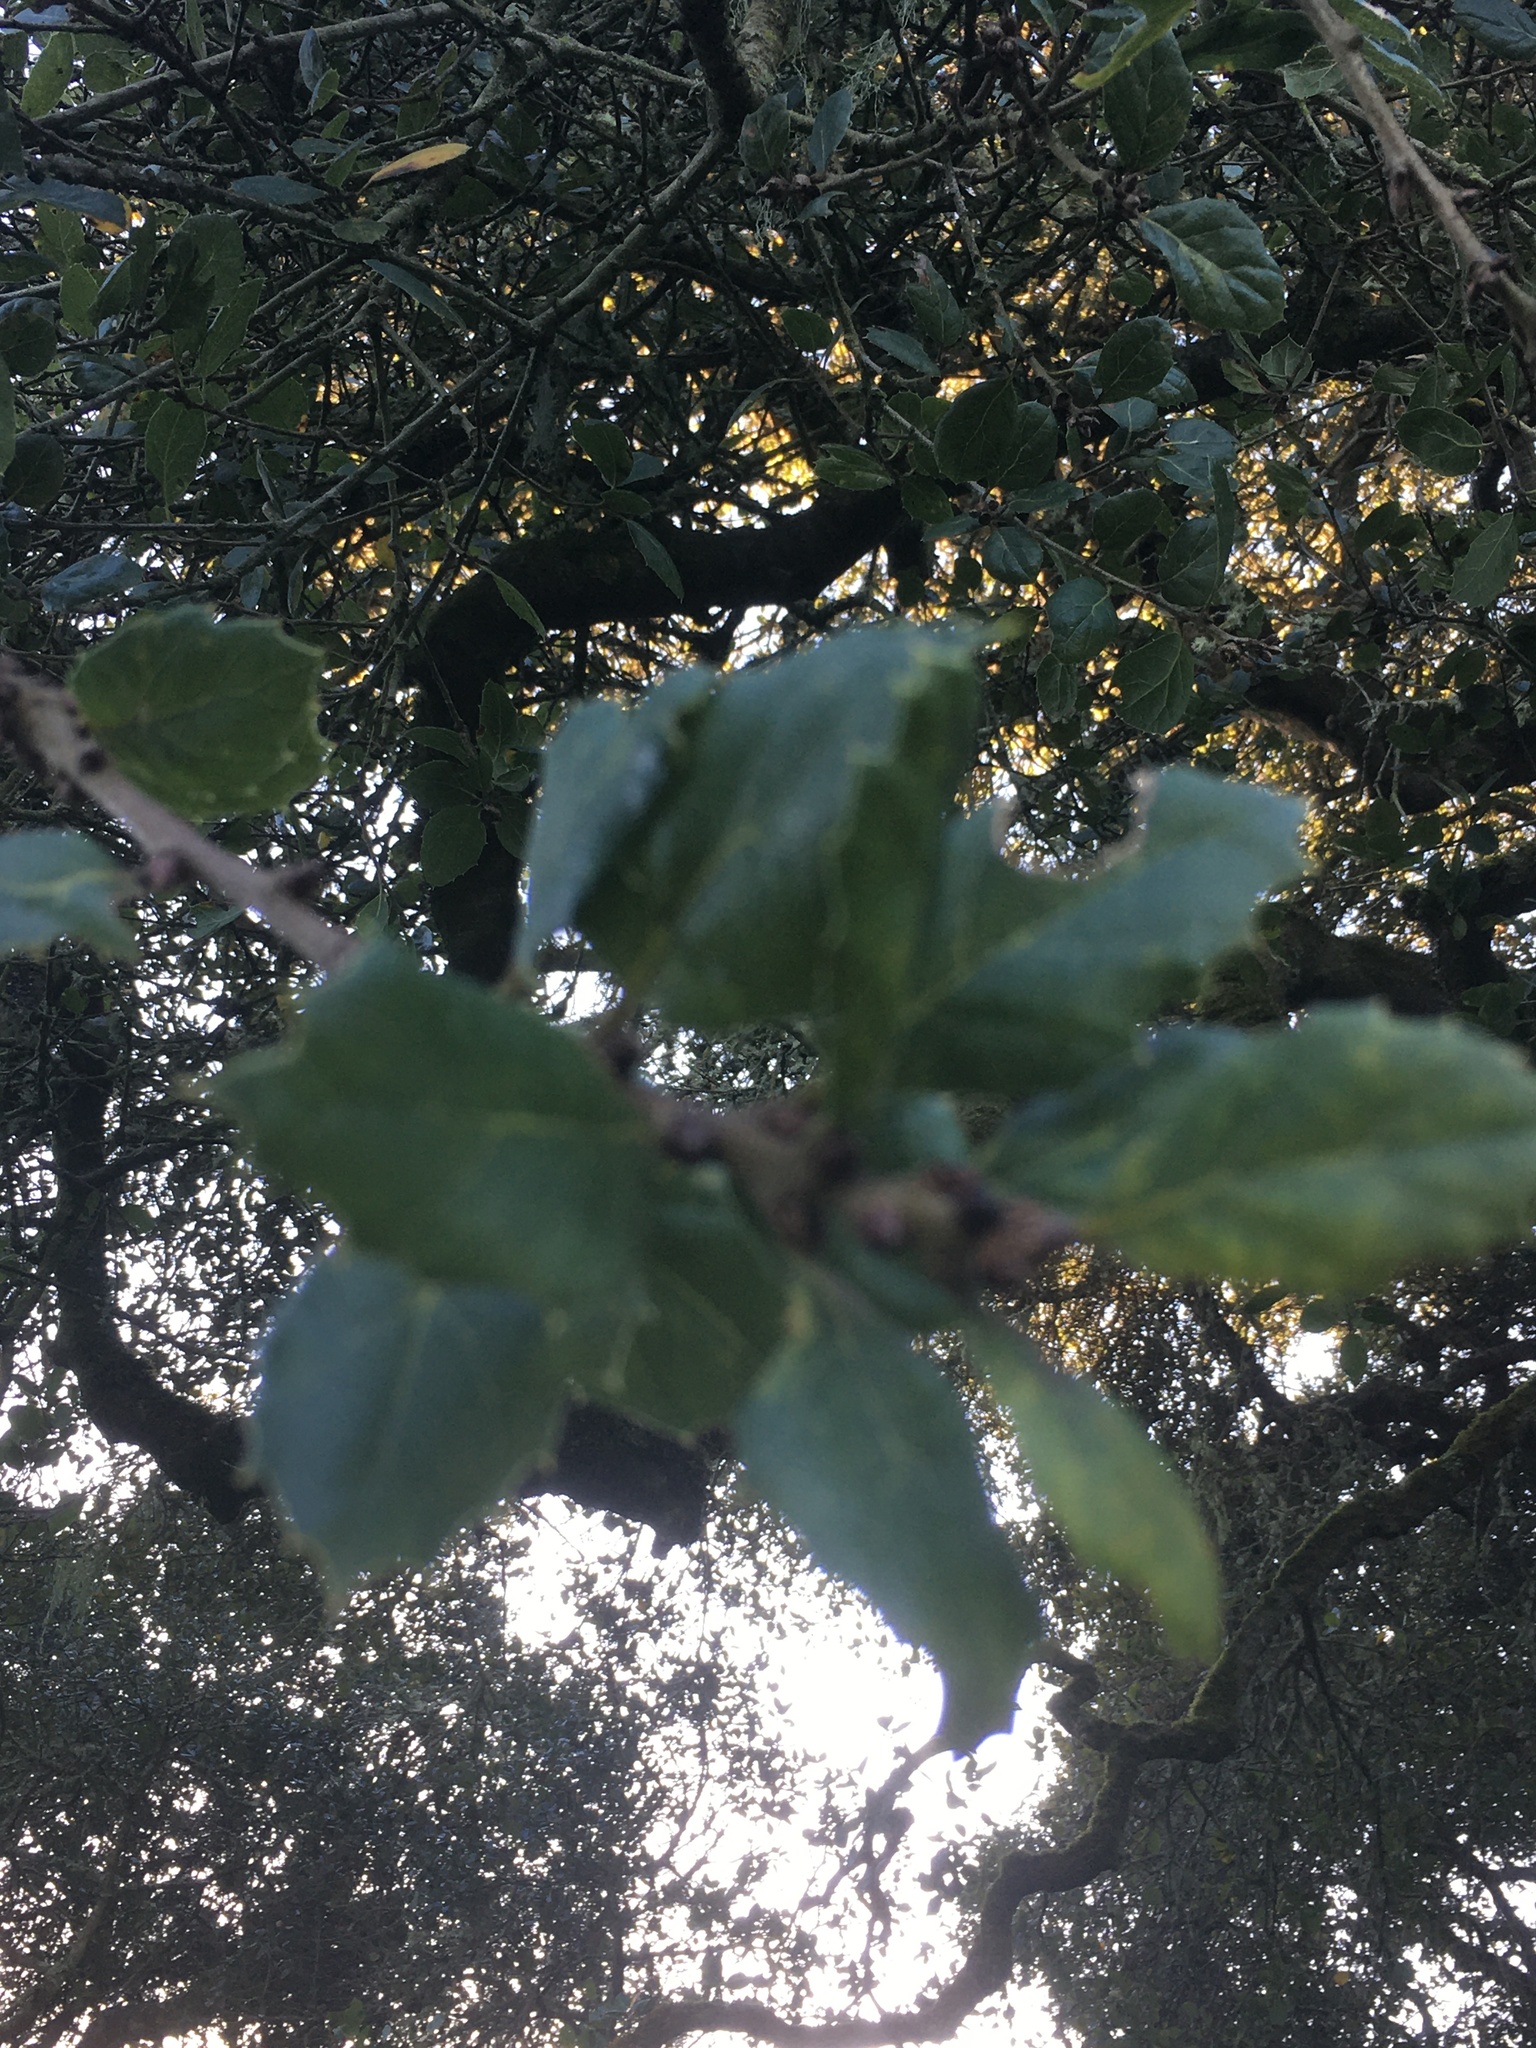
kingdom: Plantae
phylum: Tracheophyta
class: Magnoliopsida
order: Fagales
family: Fagaceae
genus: Quercus
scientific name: Quercus agrifolia
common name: California live oak
